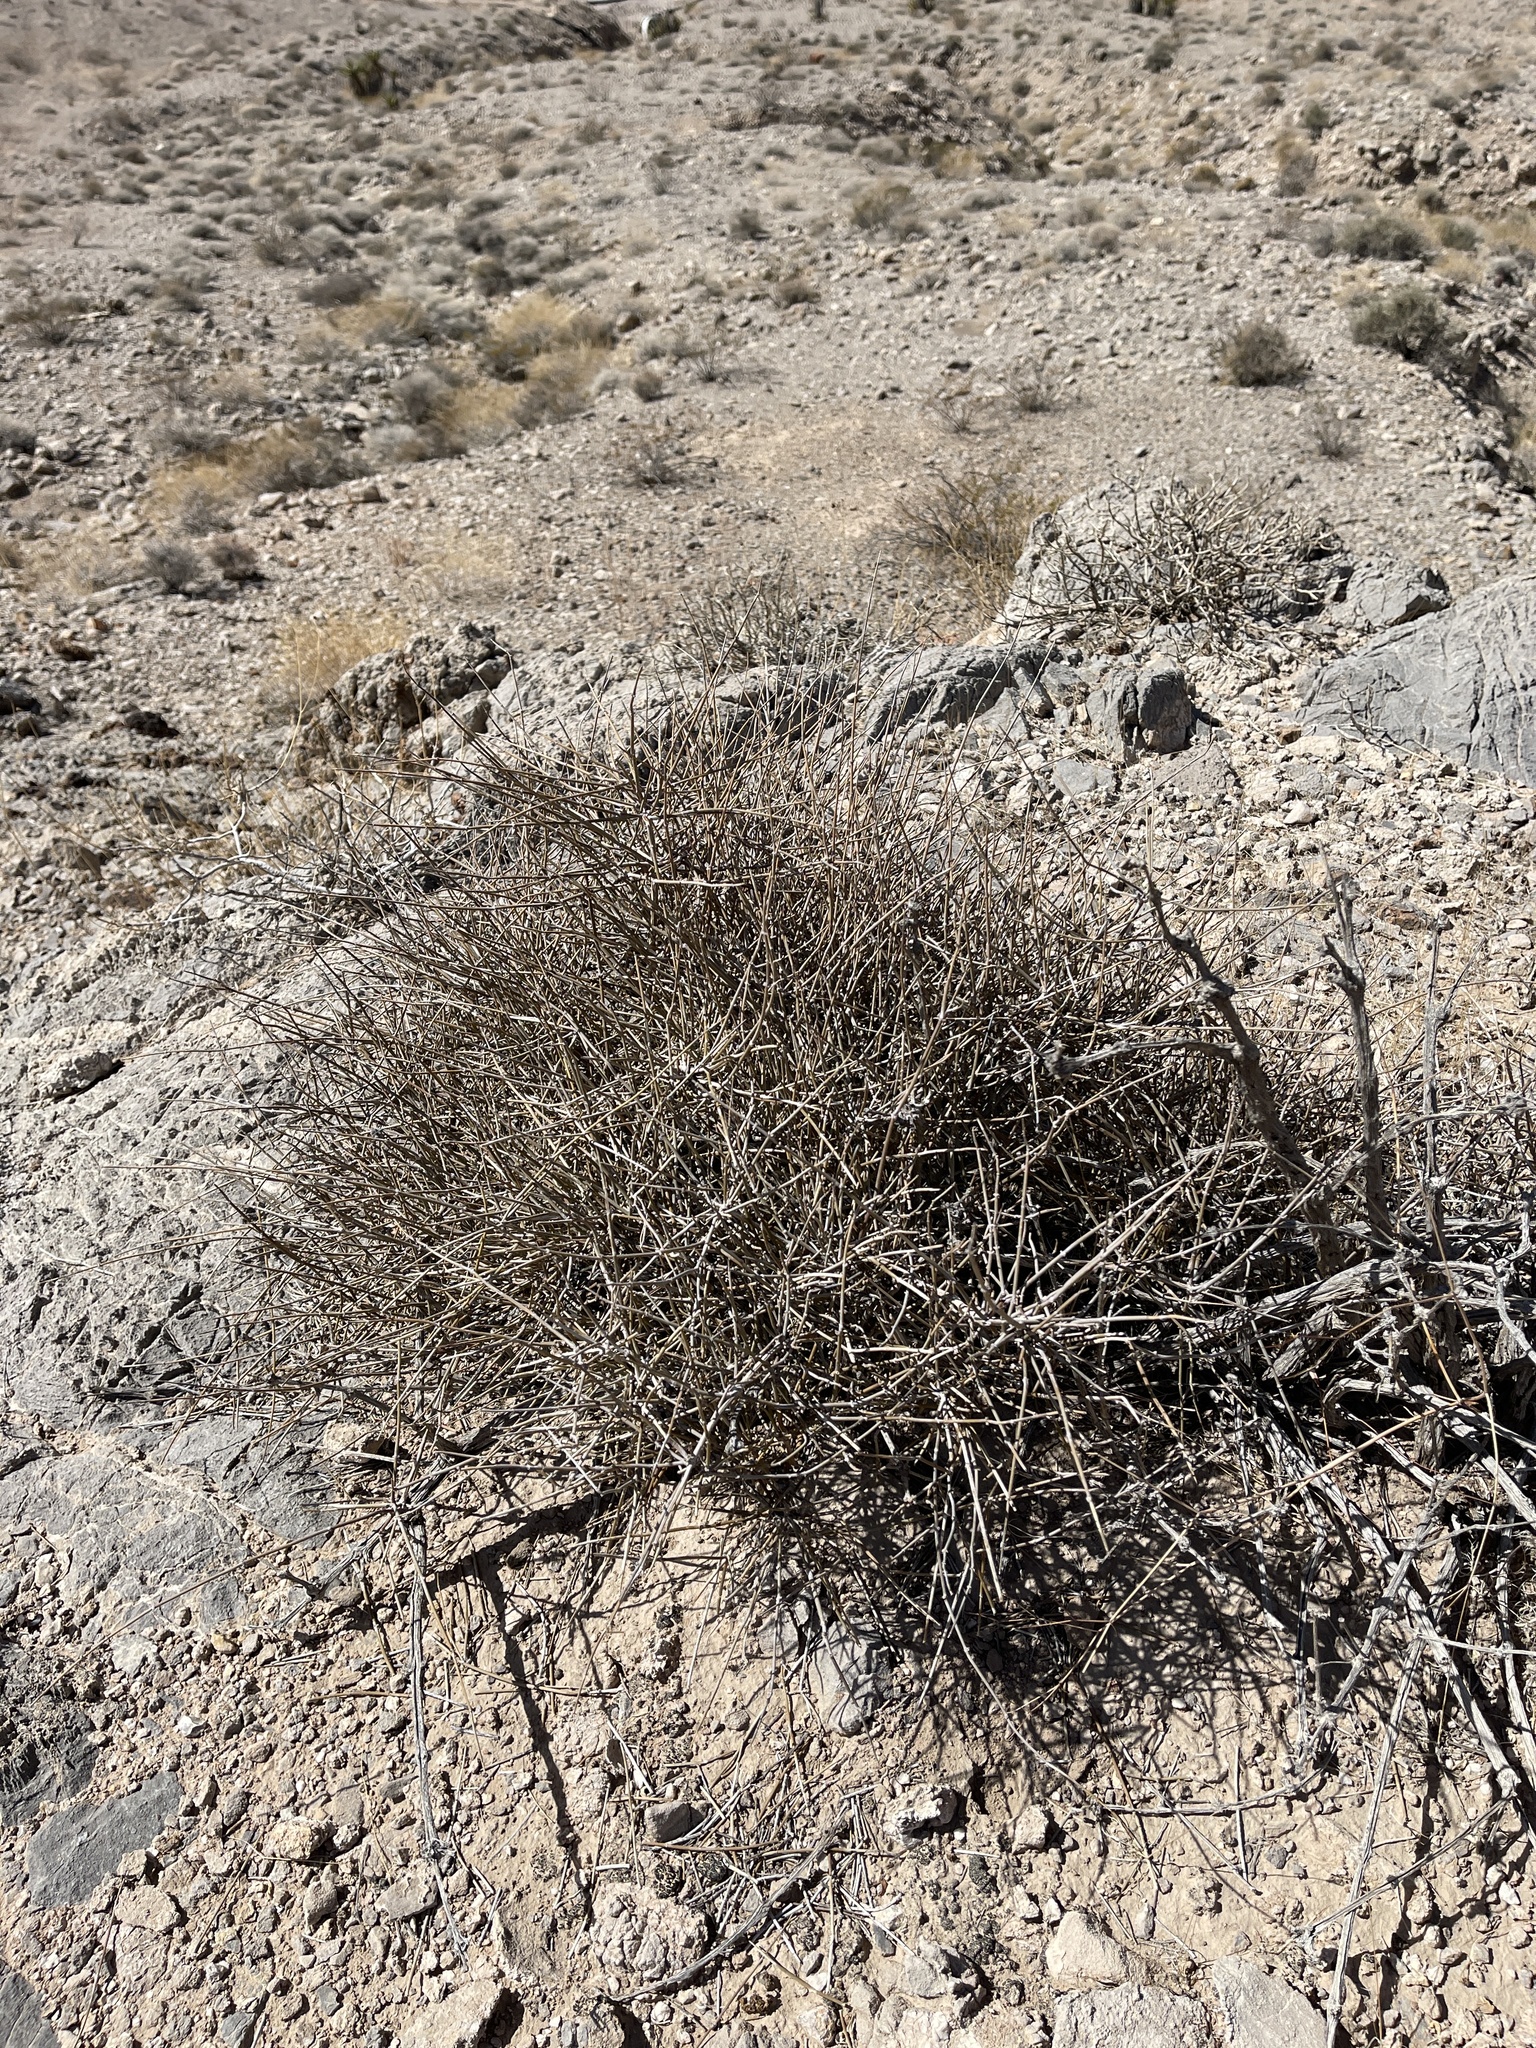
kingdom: Plantae
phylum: Tracheophyta
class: Gnetopsida
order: Ephedrales
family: Ephedraceae
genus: Ephedra
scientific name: Ephedra nevadensis
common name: Gray ephedra
